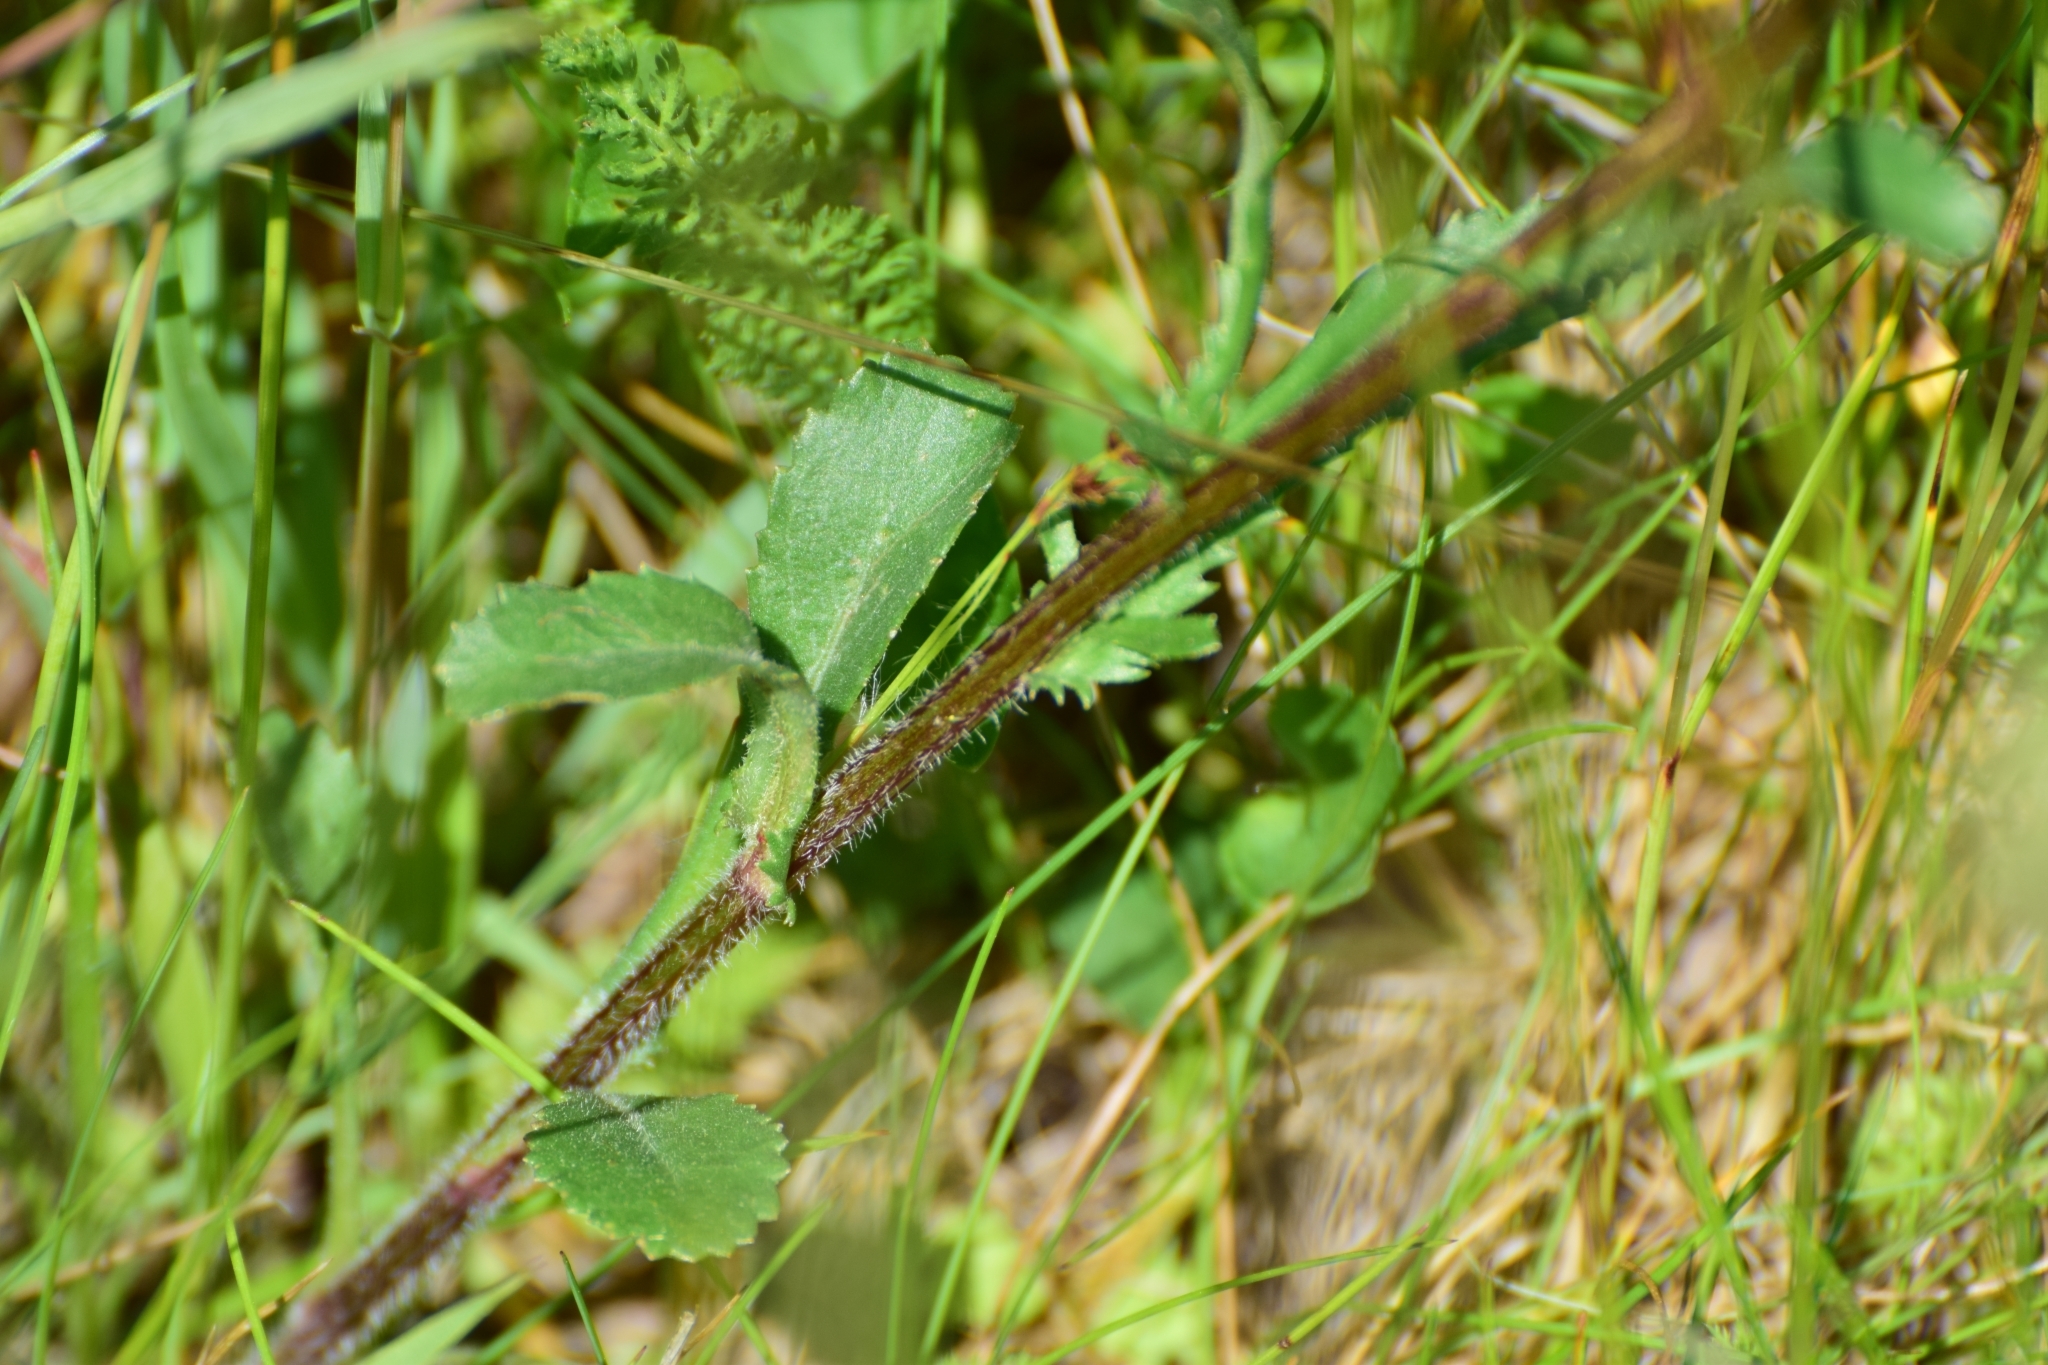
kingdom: Plantae
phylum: Tracheophyta
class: Magnoliopsida
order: Asterales
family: Asteraceae
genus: Leucanthemum
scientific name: Leucanthemum vulgare
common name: Oxeye daisy
